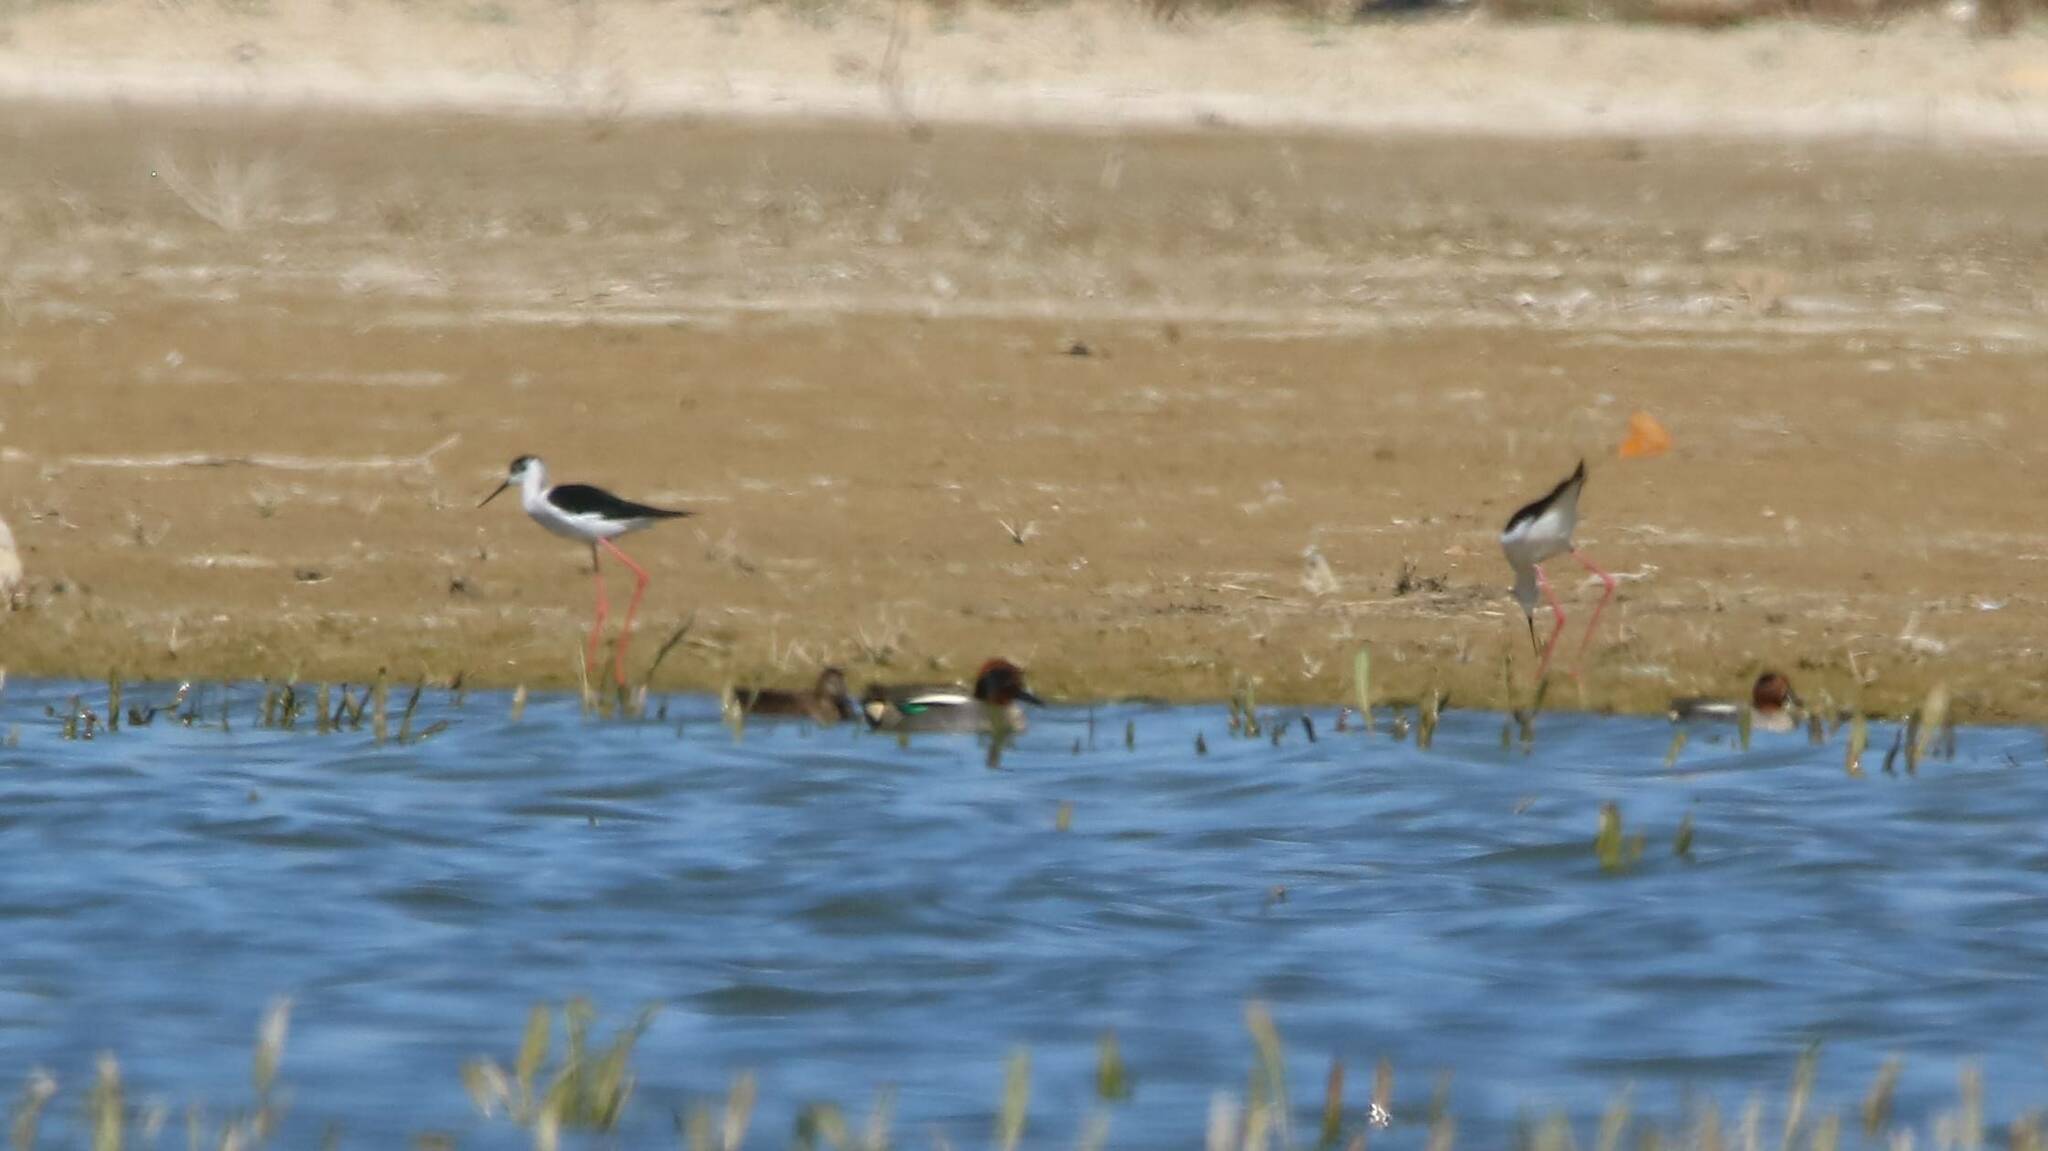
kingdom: Animalia
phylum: Chordata
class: Aves
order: Charadriiformes
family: Recurvirostridae
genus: Himantopus
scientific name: Himantopus himantopus
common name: Black-winged stilt
